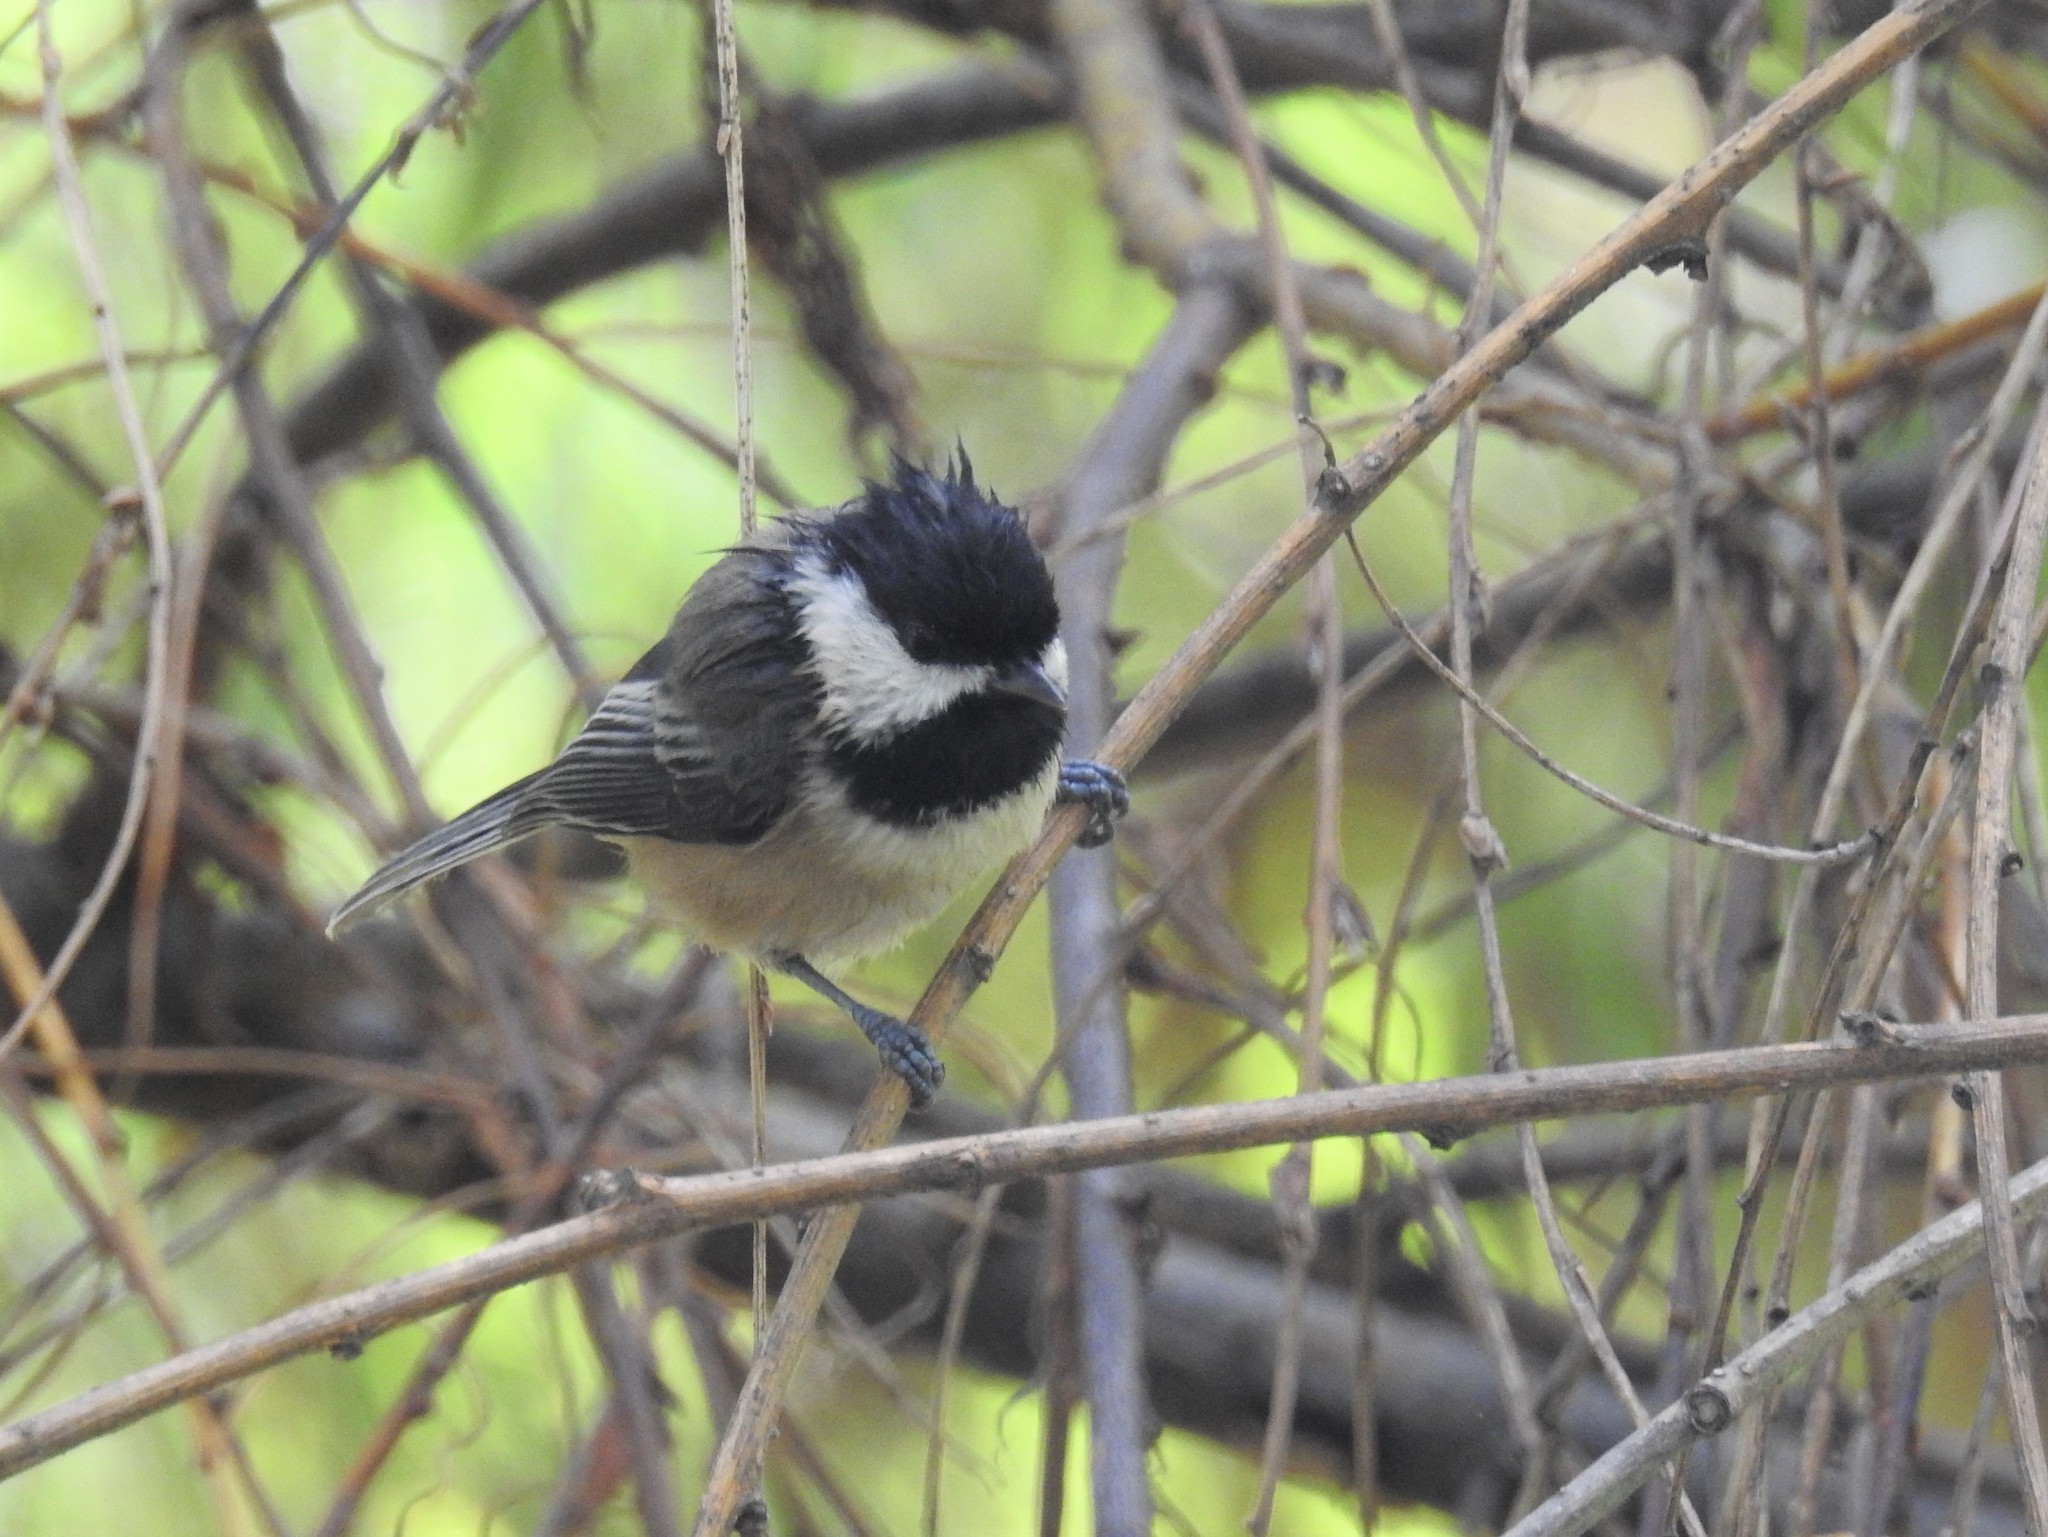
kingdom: Animalia
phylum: Chordata
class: Aves
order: Passeriformes
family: Paridae
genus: Poecile
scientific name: Poecile atricapillus
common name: Black-capped chickadee
